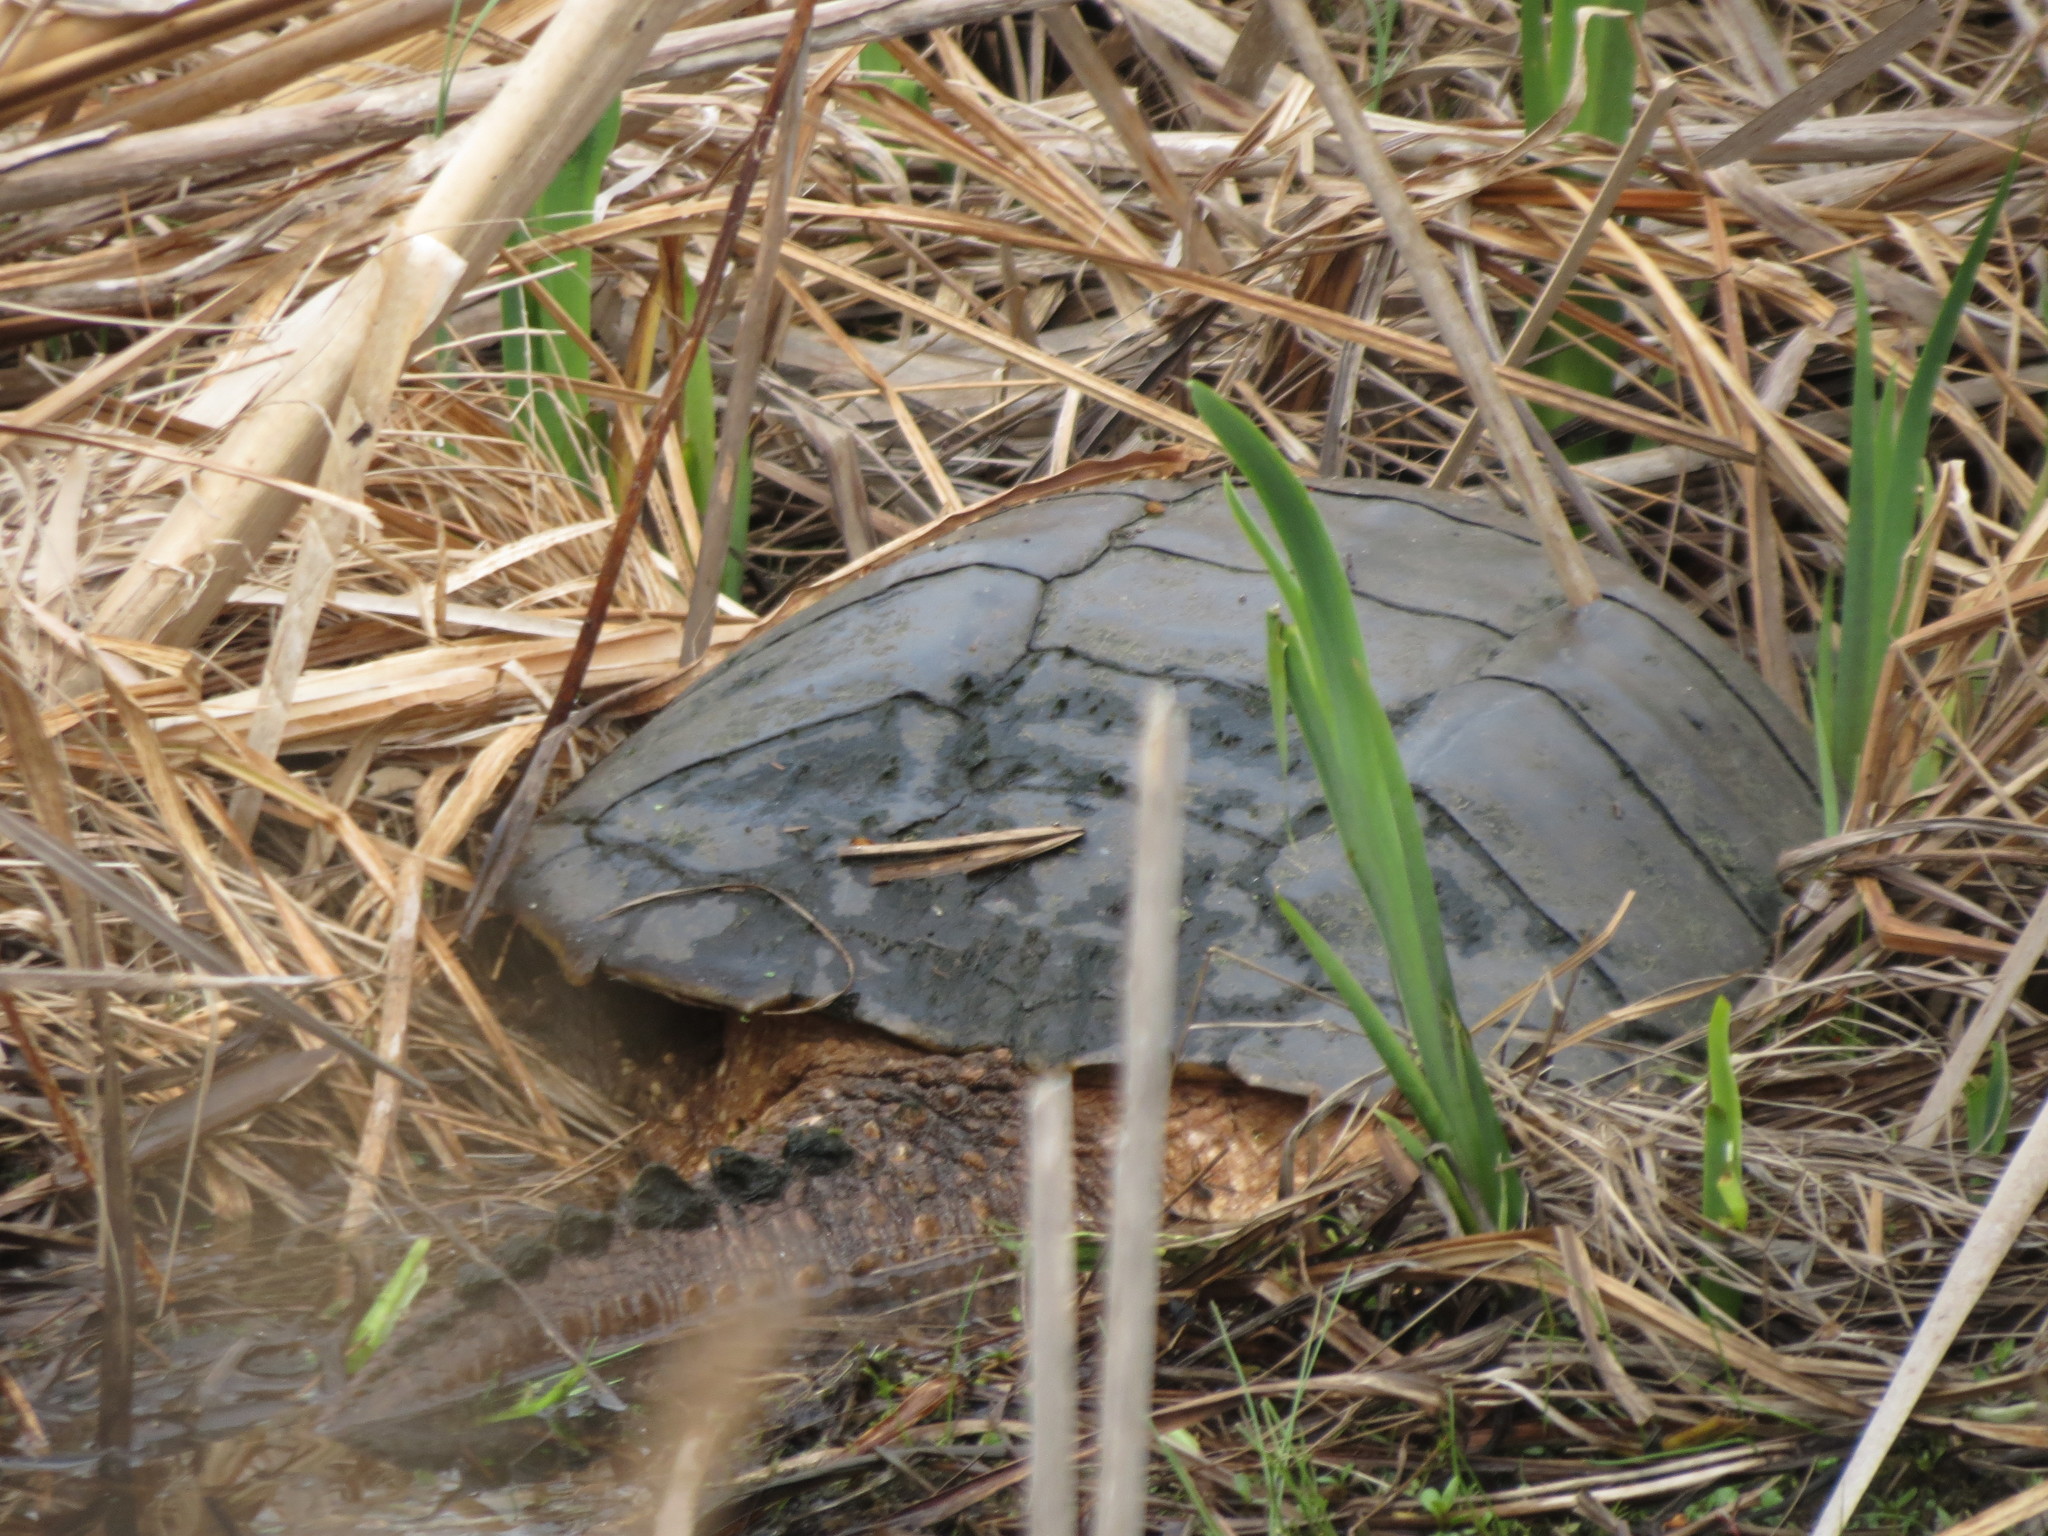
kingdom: Animalia
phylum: Chordata
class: Testudines
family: Chelydridae
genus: Chelydra
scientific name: Chelydra serpentina
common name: Common snapping turtle
